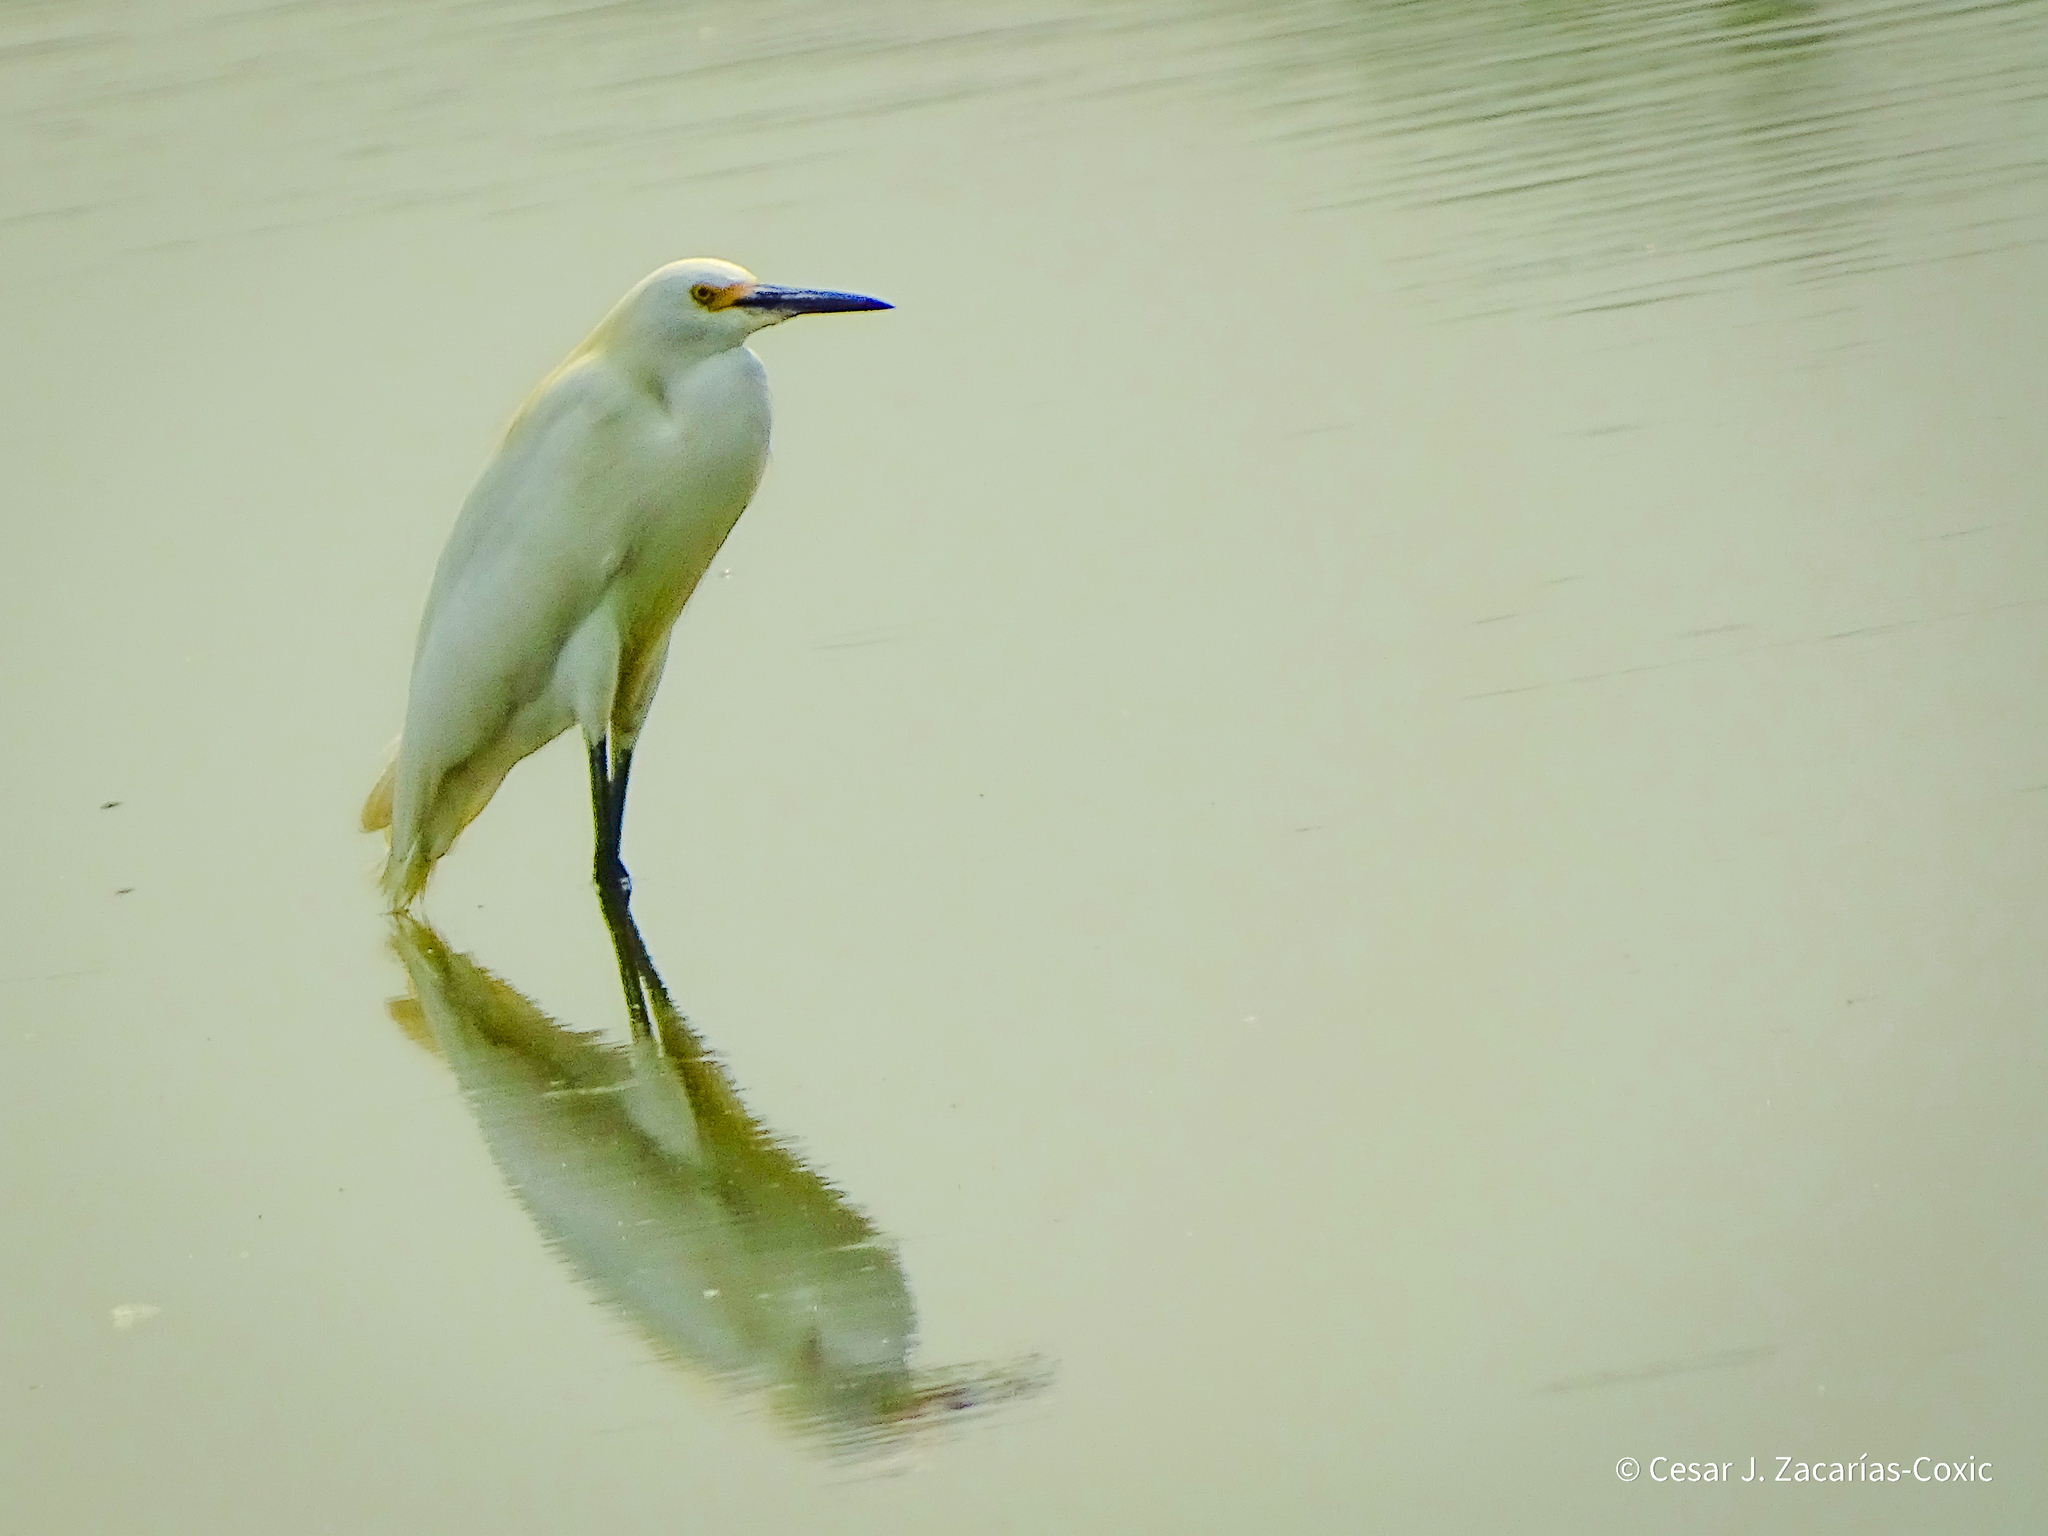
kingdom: Animalia
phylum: Chordata
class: Aves
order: Pelecaniformes
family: Ardeidae
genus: Egretta
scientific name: Egretta thula
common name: Snowy egret
